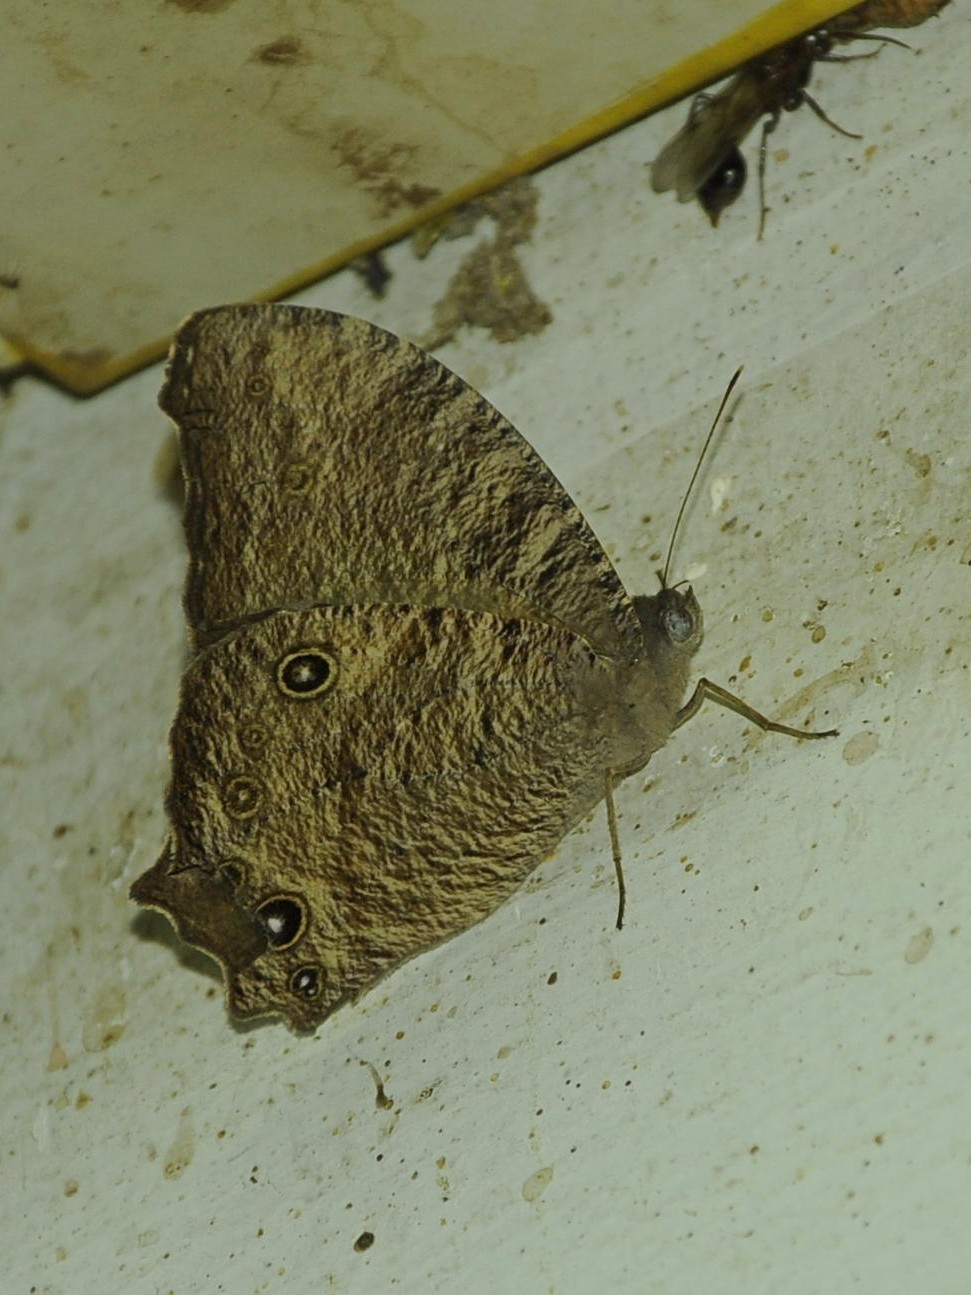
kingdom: Animalia
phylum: Arthropoda
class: Insecta
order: Lepidoptera
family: Nymphalidae
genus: Melanitis
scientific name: Melanitis leda
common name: Twilight brown
